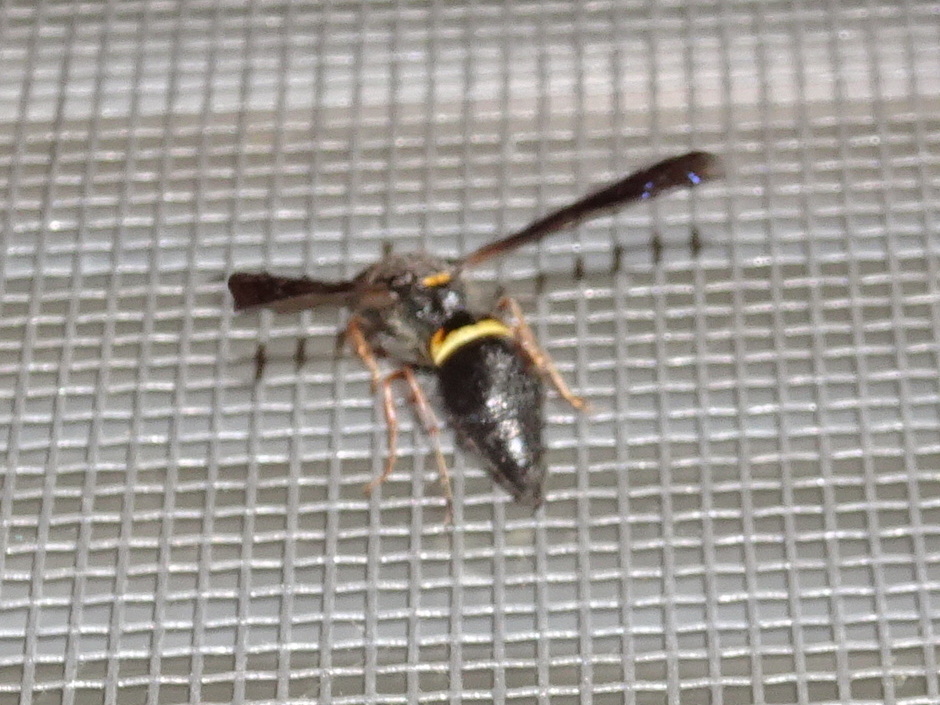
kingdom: Animalia
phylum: Arthropoda
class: Insecta
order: Hymenoptera
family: Vespidae
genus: Ancistrocerus
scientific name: Ancistrocerus unifasciatus
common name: One-banded mason wasp
